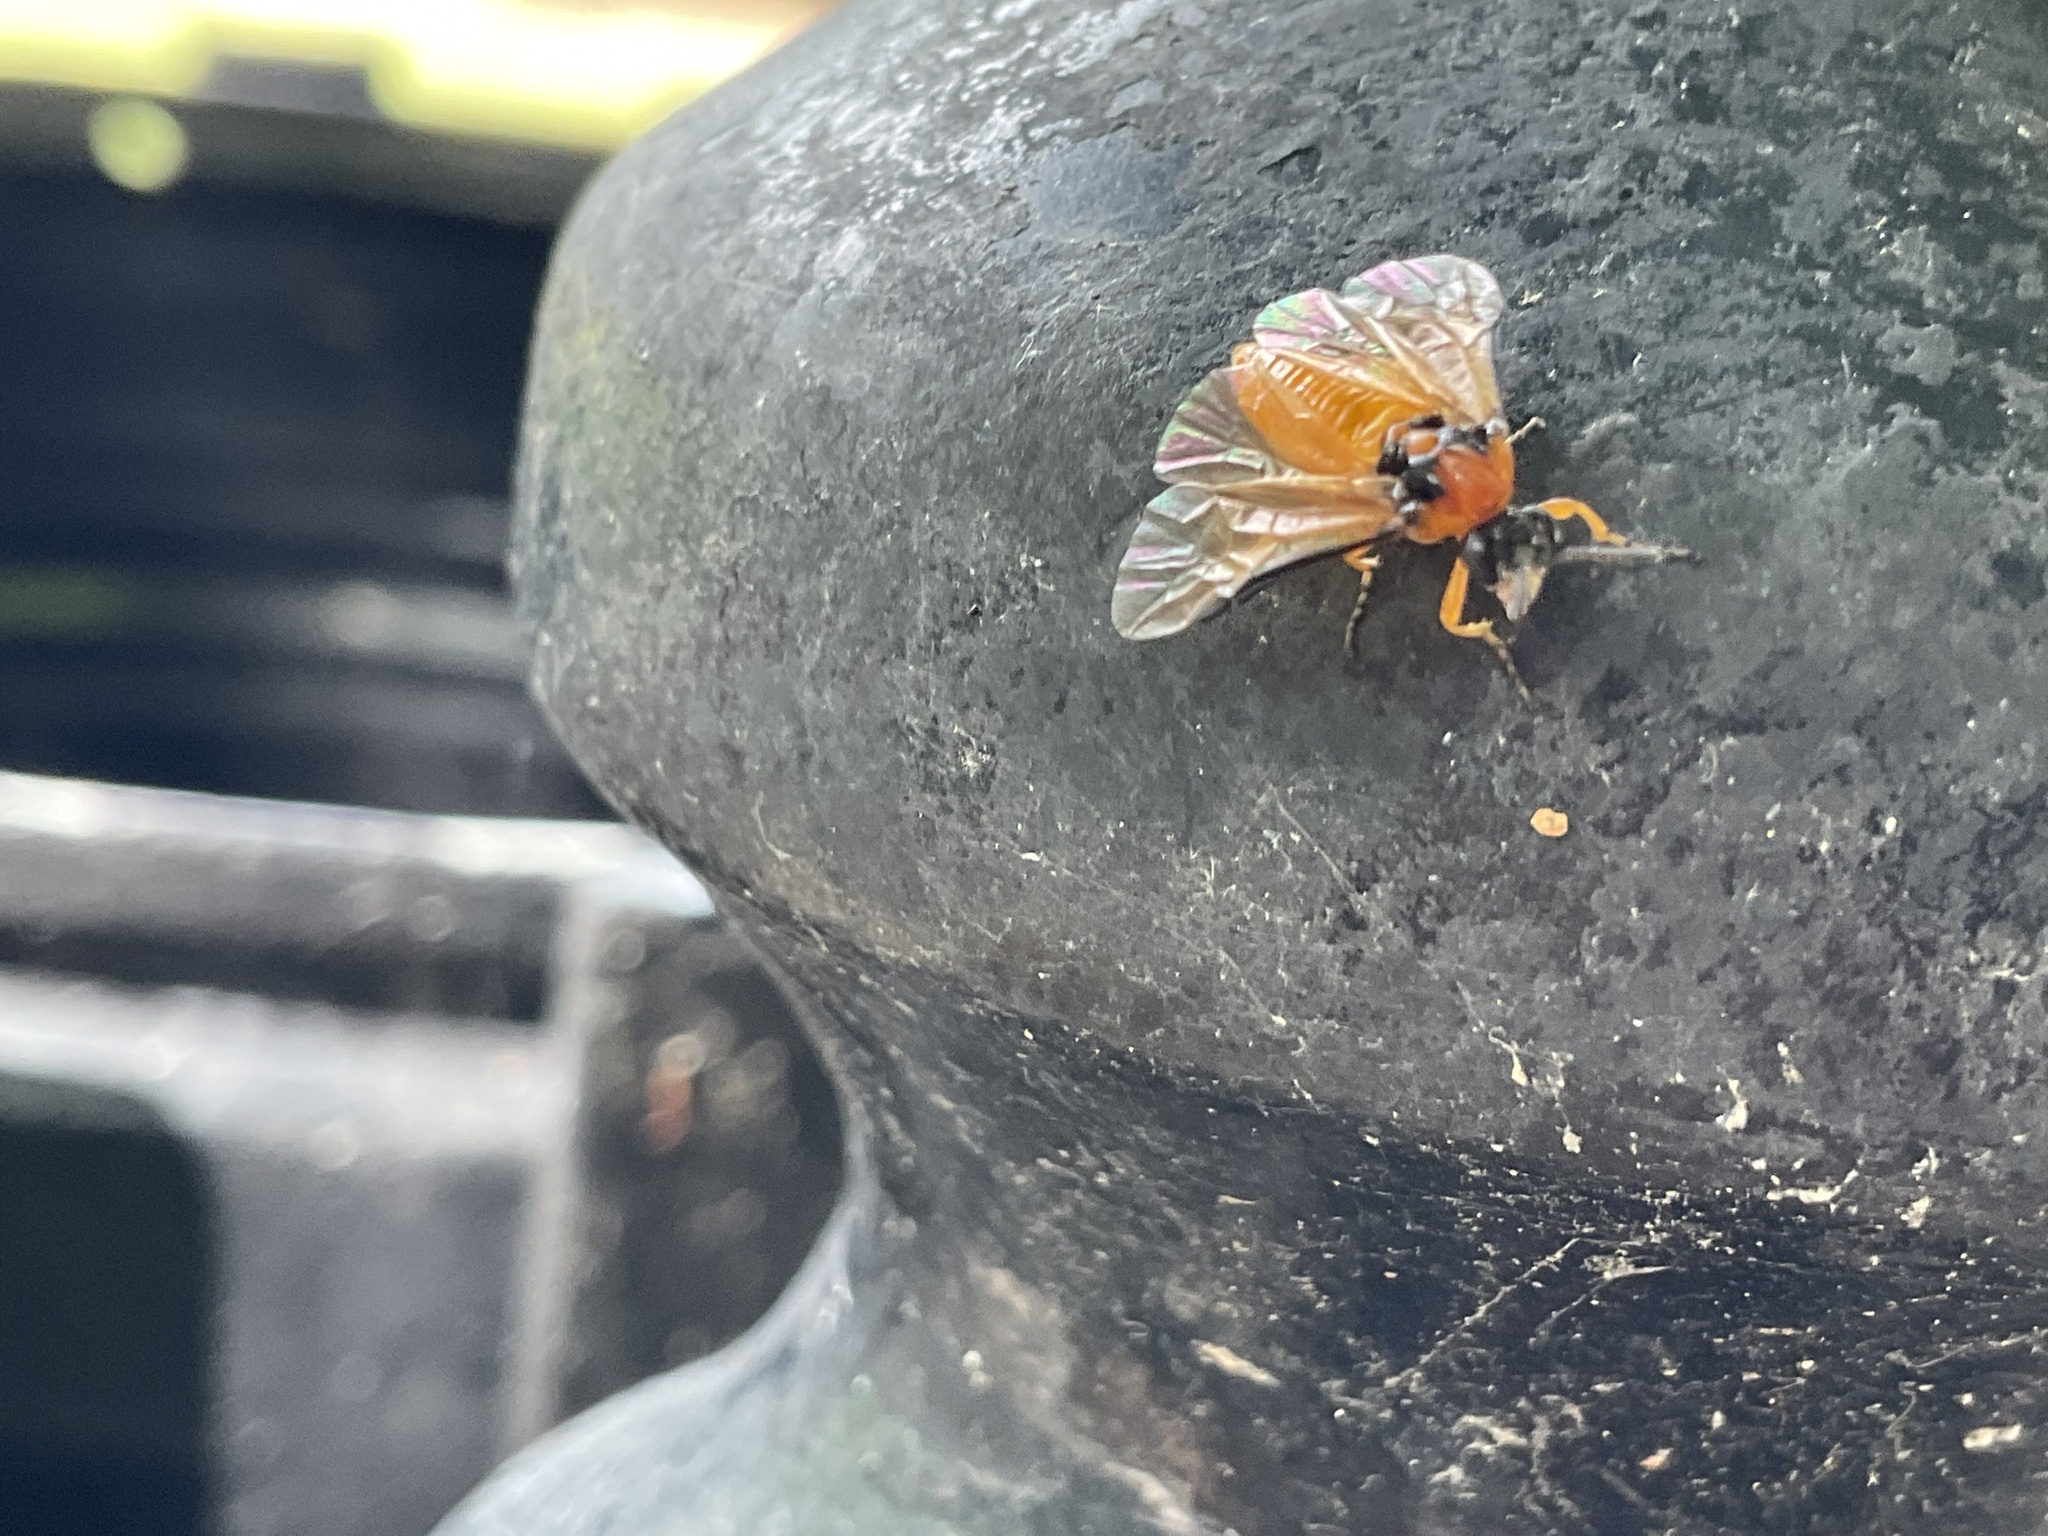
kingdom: Animalia
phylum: Arthropoda
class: Insecta
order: Hymenoptera
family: Tenthredinidae
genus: Athalia
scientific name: Athalia rosae
